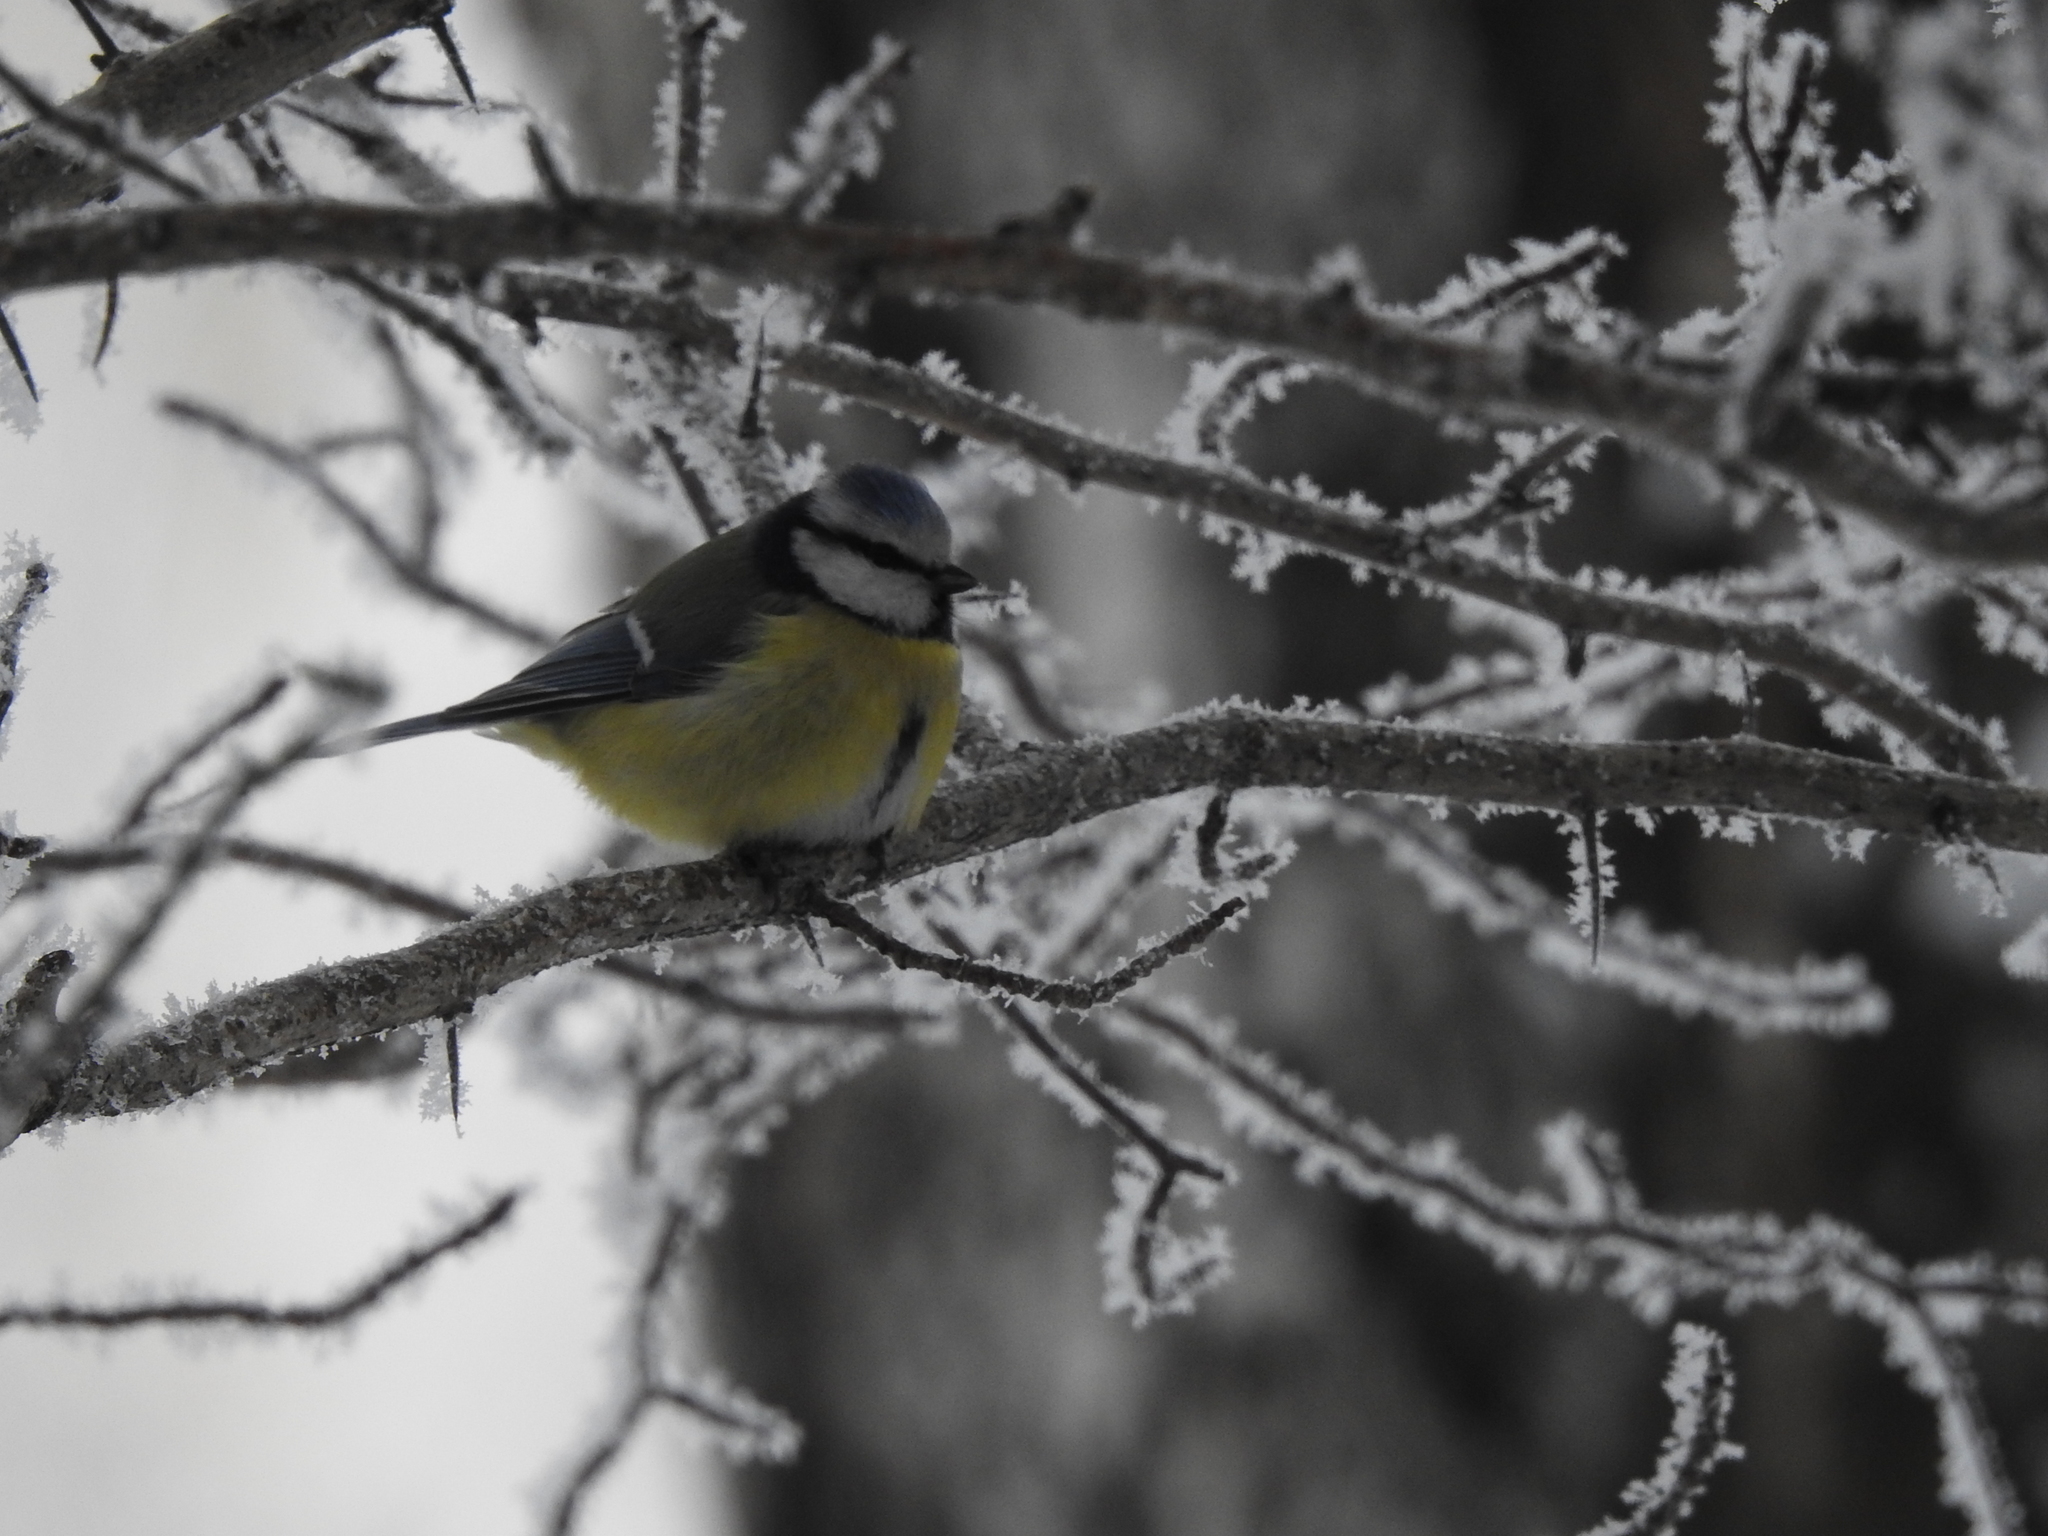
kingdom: Animalia
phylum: Chordata
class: Aves
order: Passeriformes
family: Paridae
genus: Cyanistes
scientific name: Cyanistes caeruleus
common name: Eurasian blue tit
